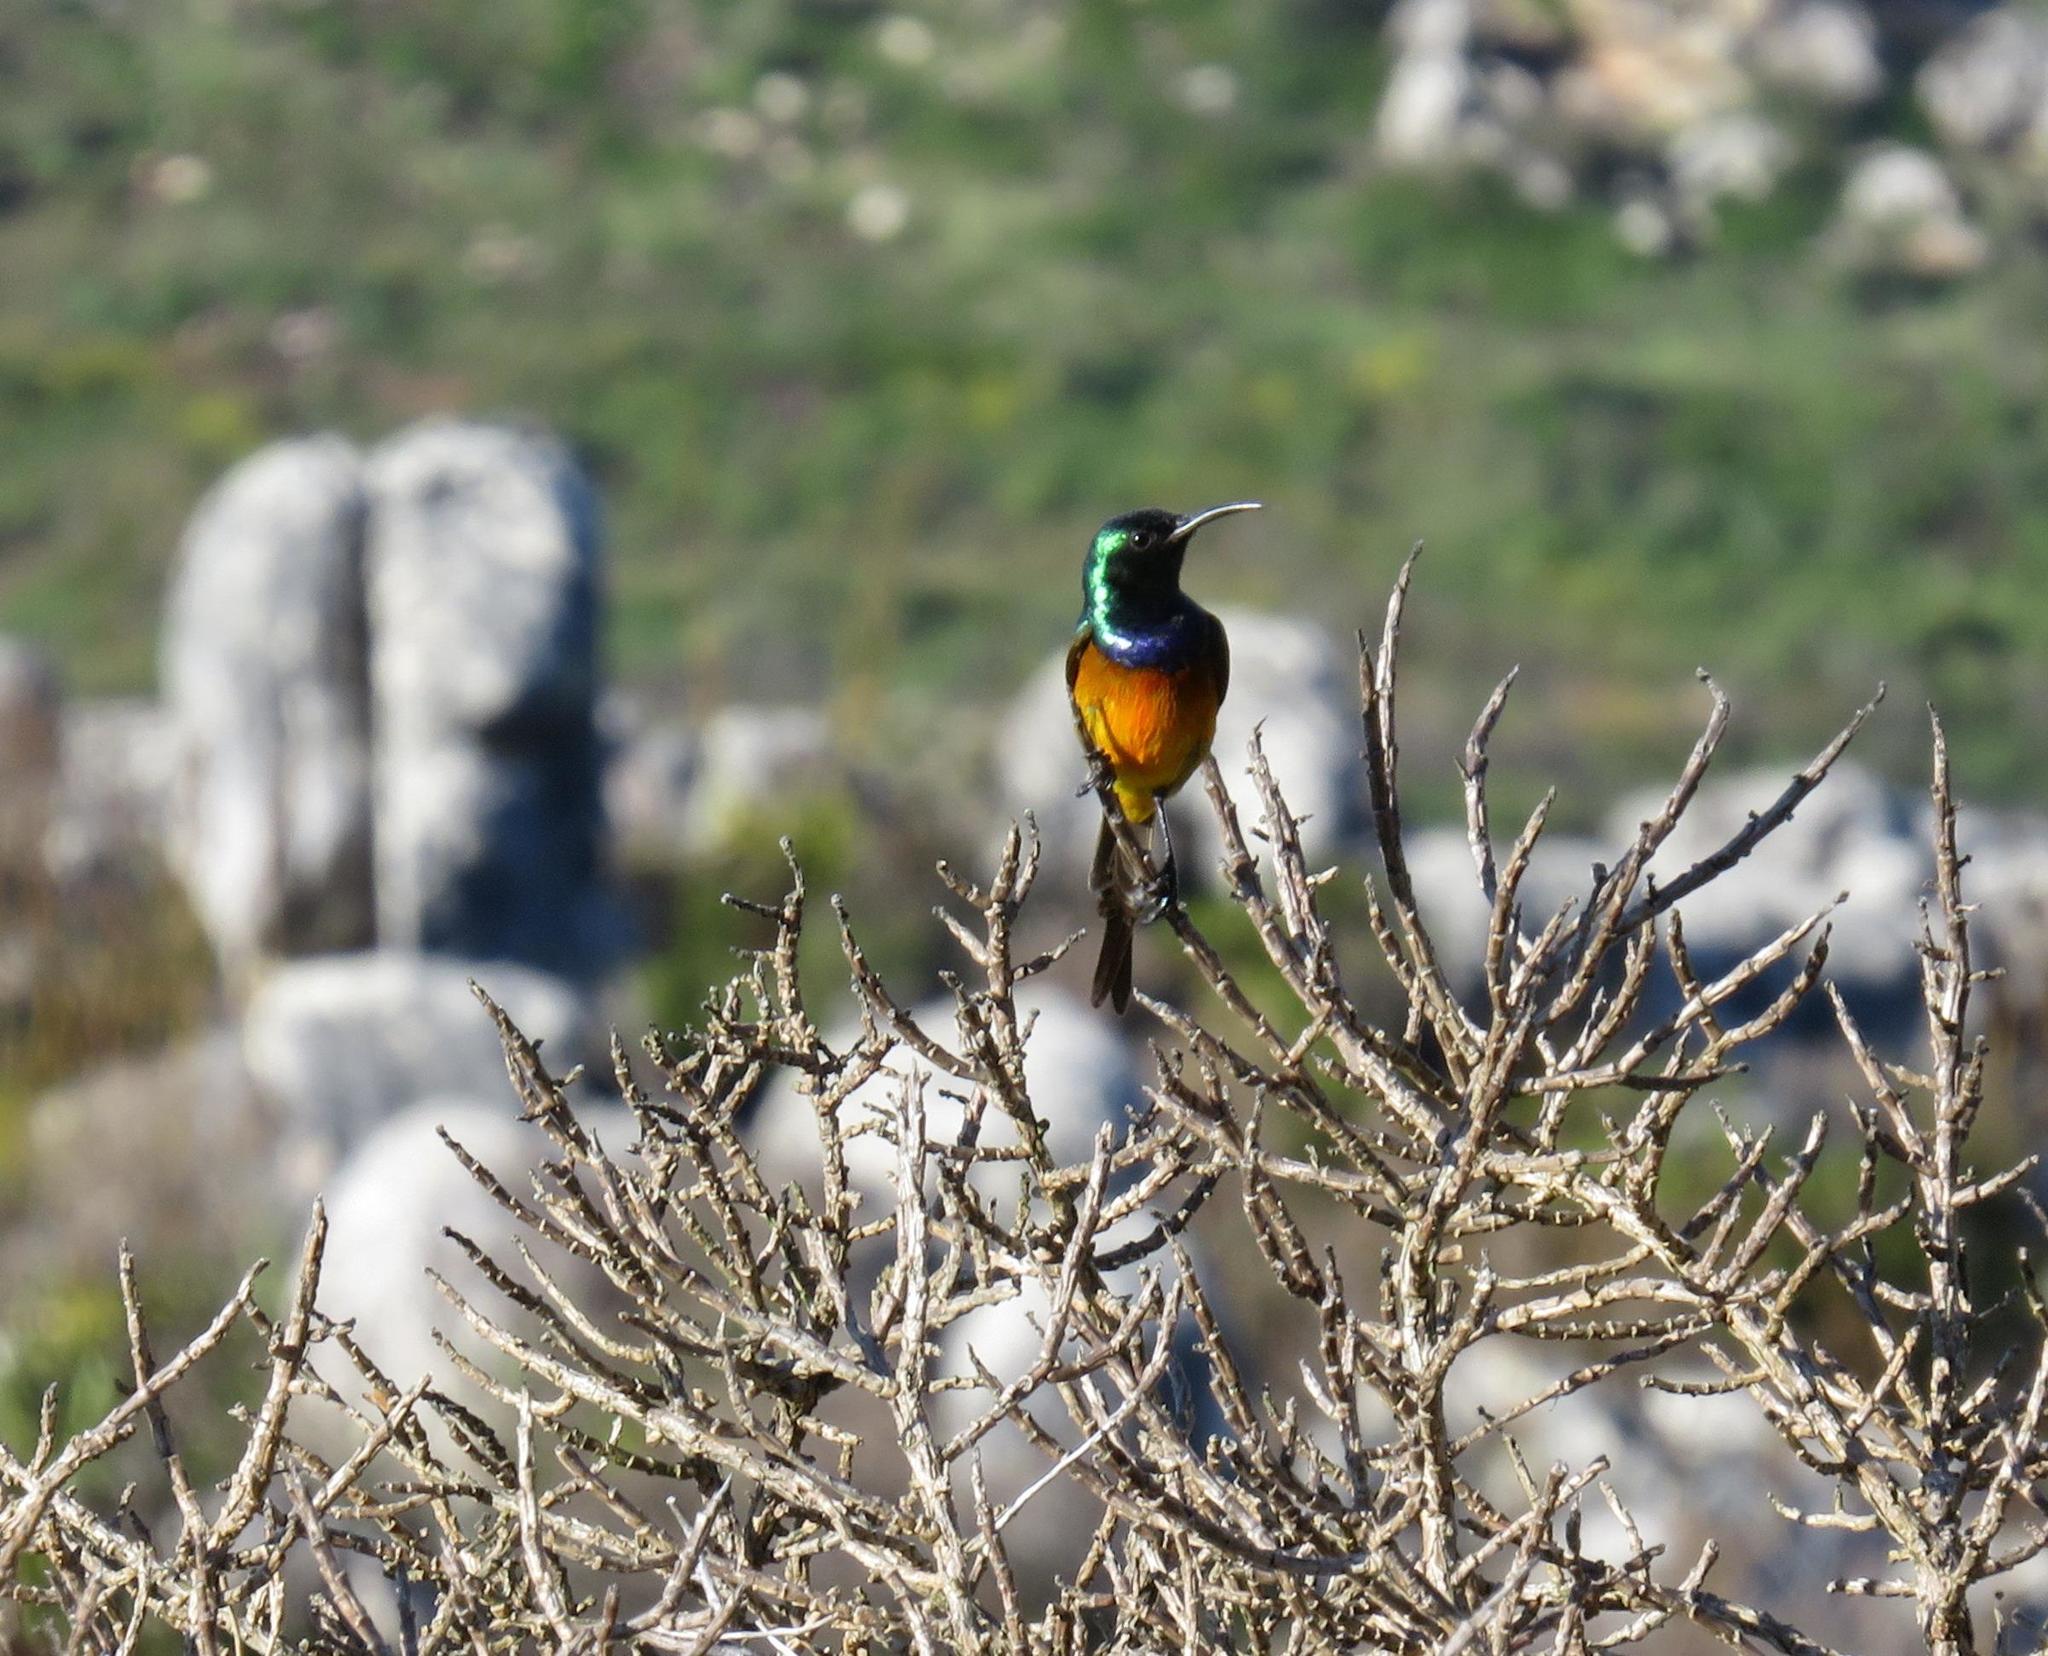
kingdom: Animalia
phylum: Chordata
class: Aves
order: Passeriformes
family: Nectariniidae
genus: Anthobaphes
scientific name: Anthobaphes violacea
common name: Orange-breasted sunbird
